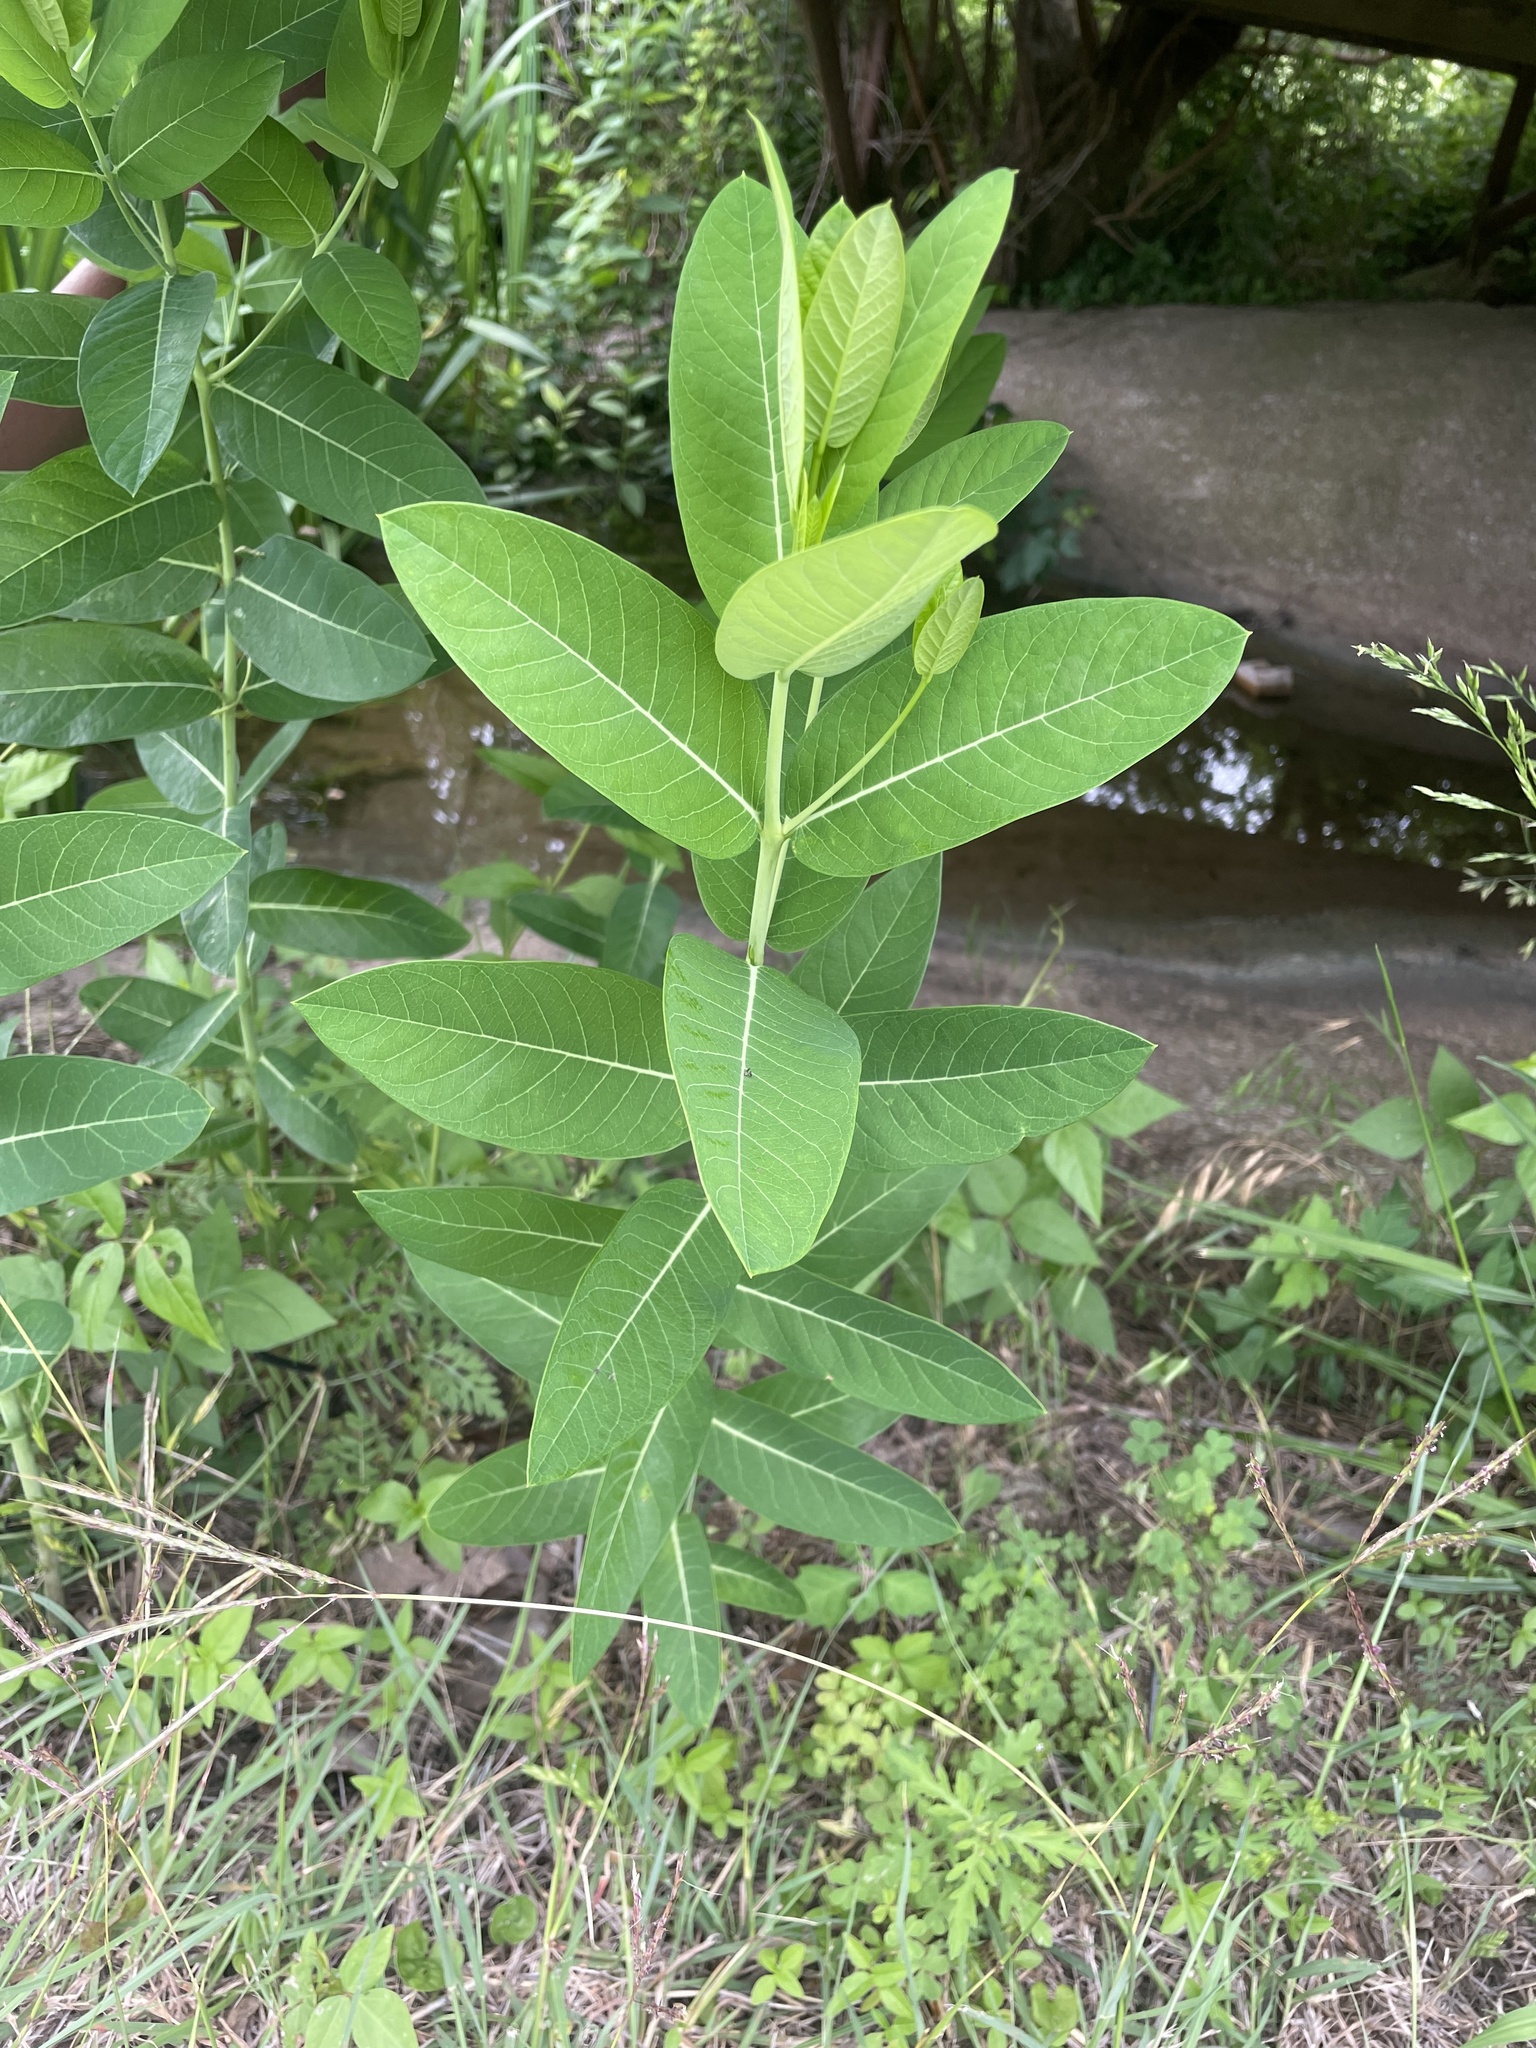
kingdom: Plantae
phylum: Tracheophyta
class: Magnoliopsida
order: Gentianales
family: Apocynaceae
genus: Apocynum
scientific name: Apocynum cannabinum
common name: Hemp dogbane
